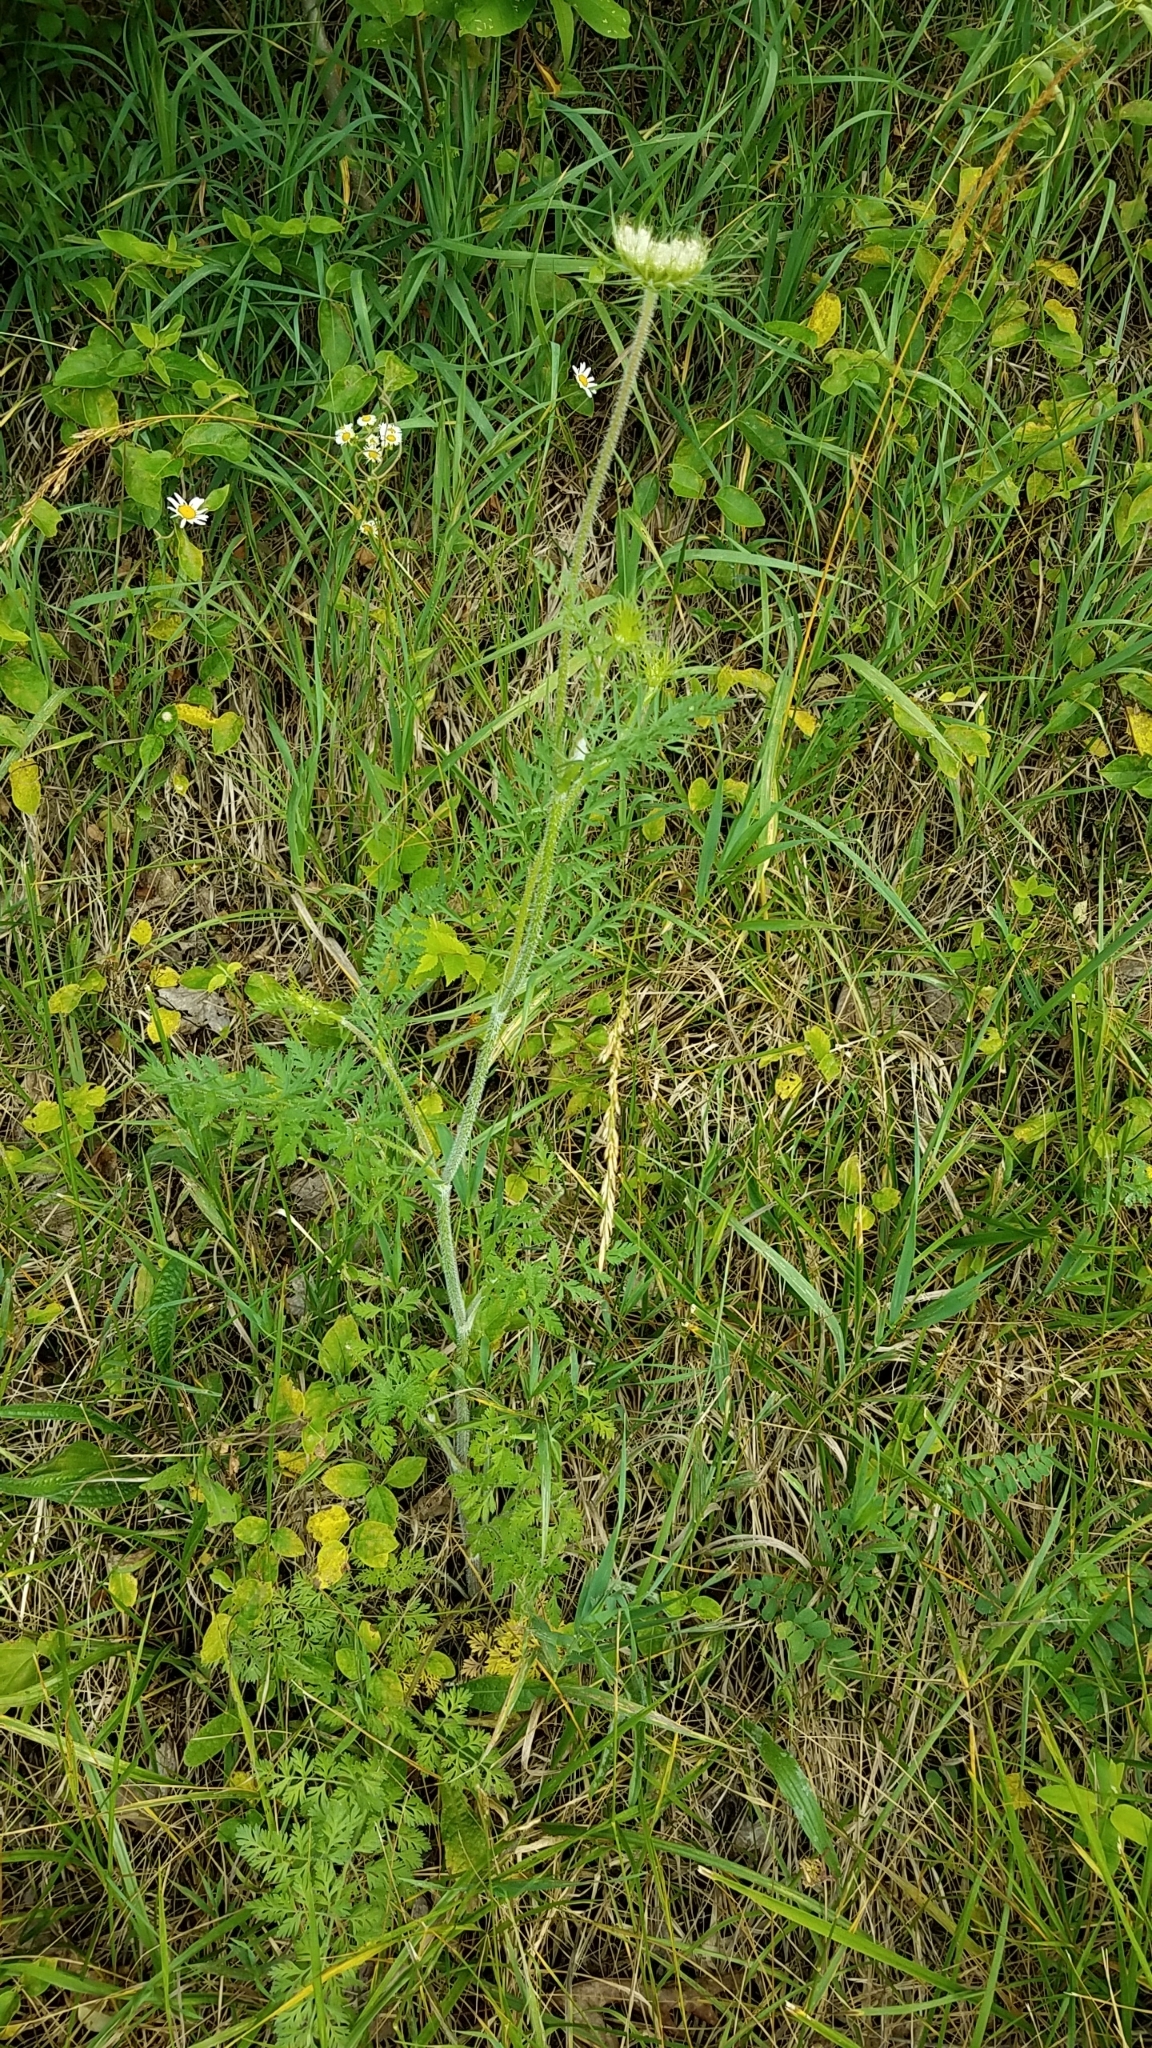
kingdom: Plantae
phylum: Tracheophyta
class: Magnoliopsida
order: Apiales
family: Apiaceae
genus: Daucus
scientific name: Daucus carota
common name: Wild carrot
